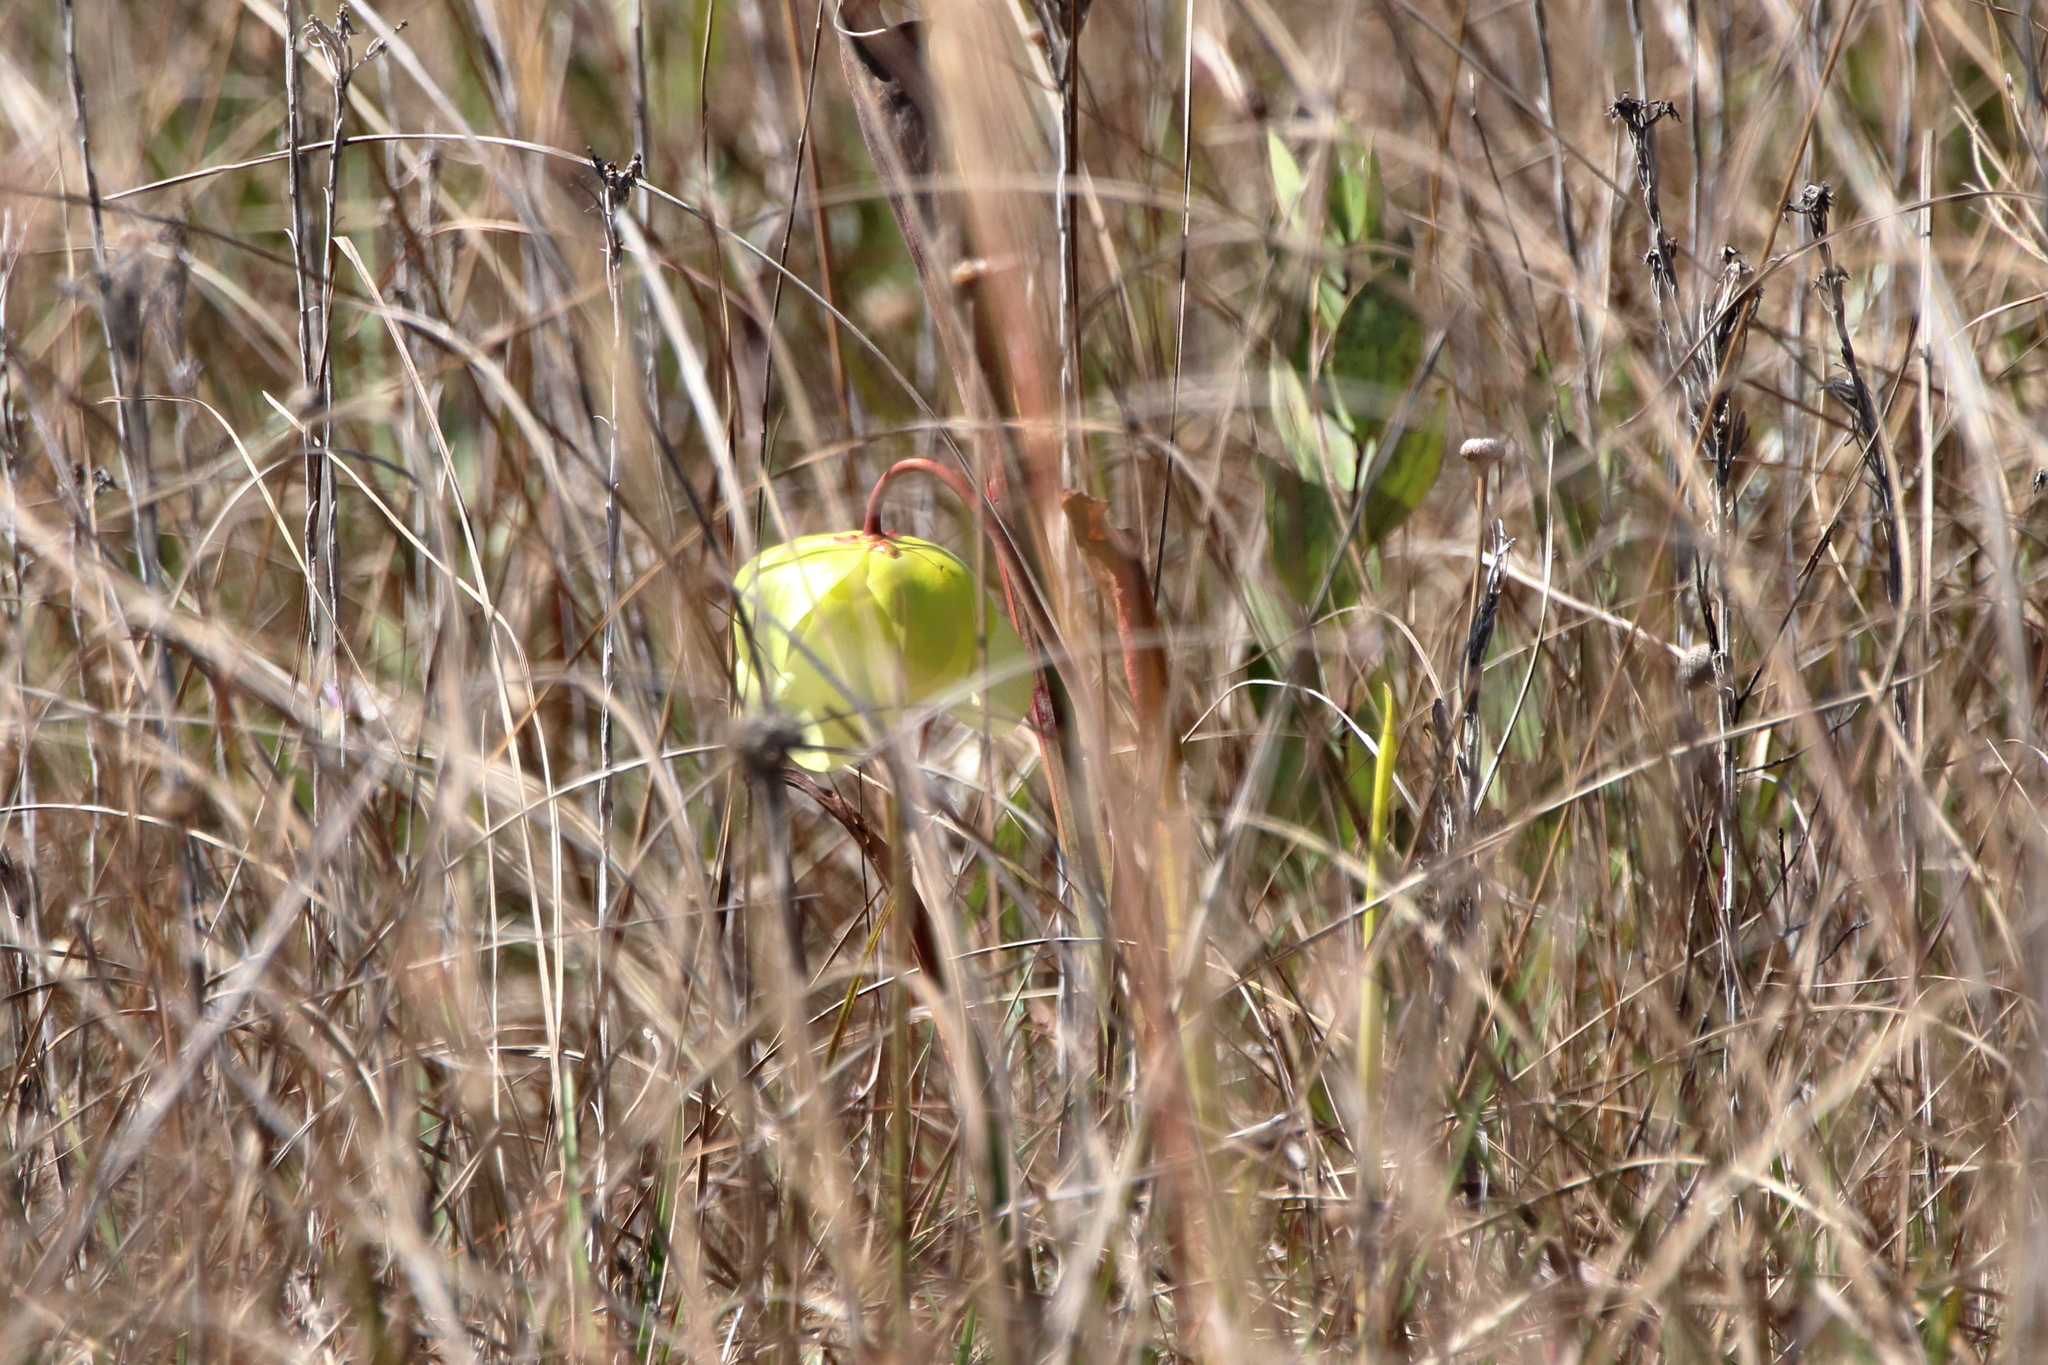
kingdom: Plantae
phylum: Tracheophyta
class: Magnoliopsida
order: Ericales
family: Sarraceniaceae
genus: Sarracenia
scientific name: Sarracenia alata
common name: Yellow trumpets
